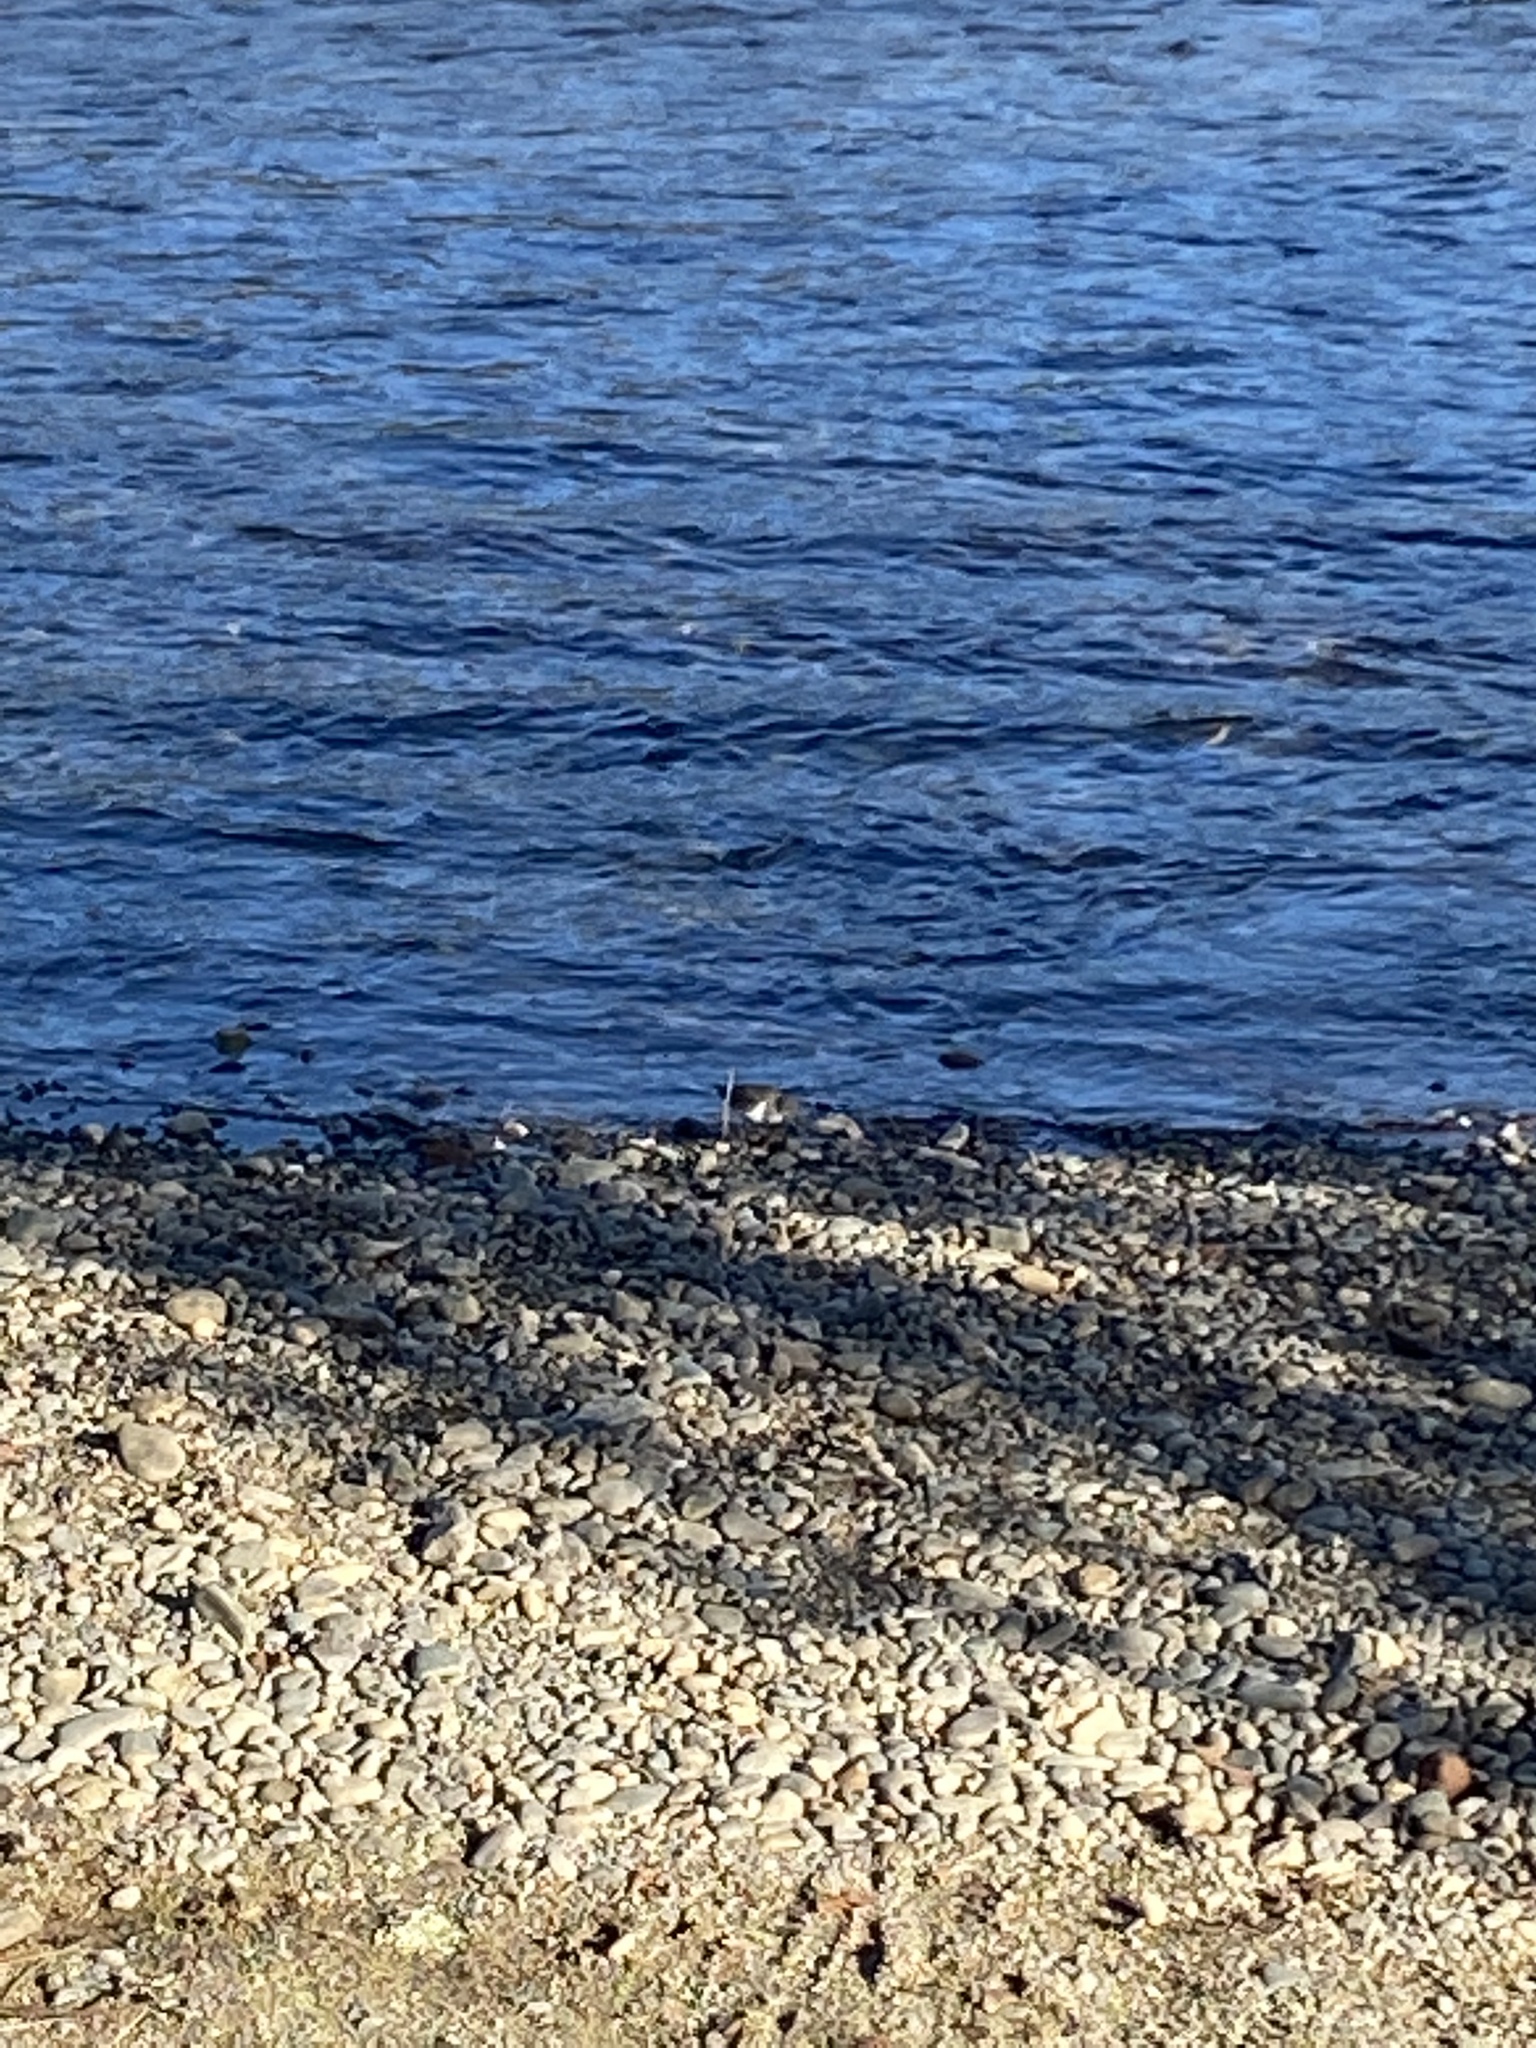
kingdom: Animalia
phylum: Chordata
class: Aves
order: Charadriiformes
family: Scolopacidae
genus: Actitis
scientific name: Actitis macularius
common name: Spotted sandpiper
